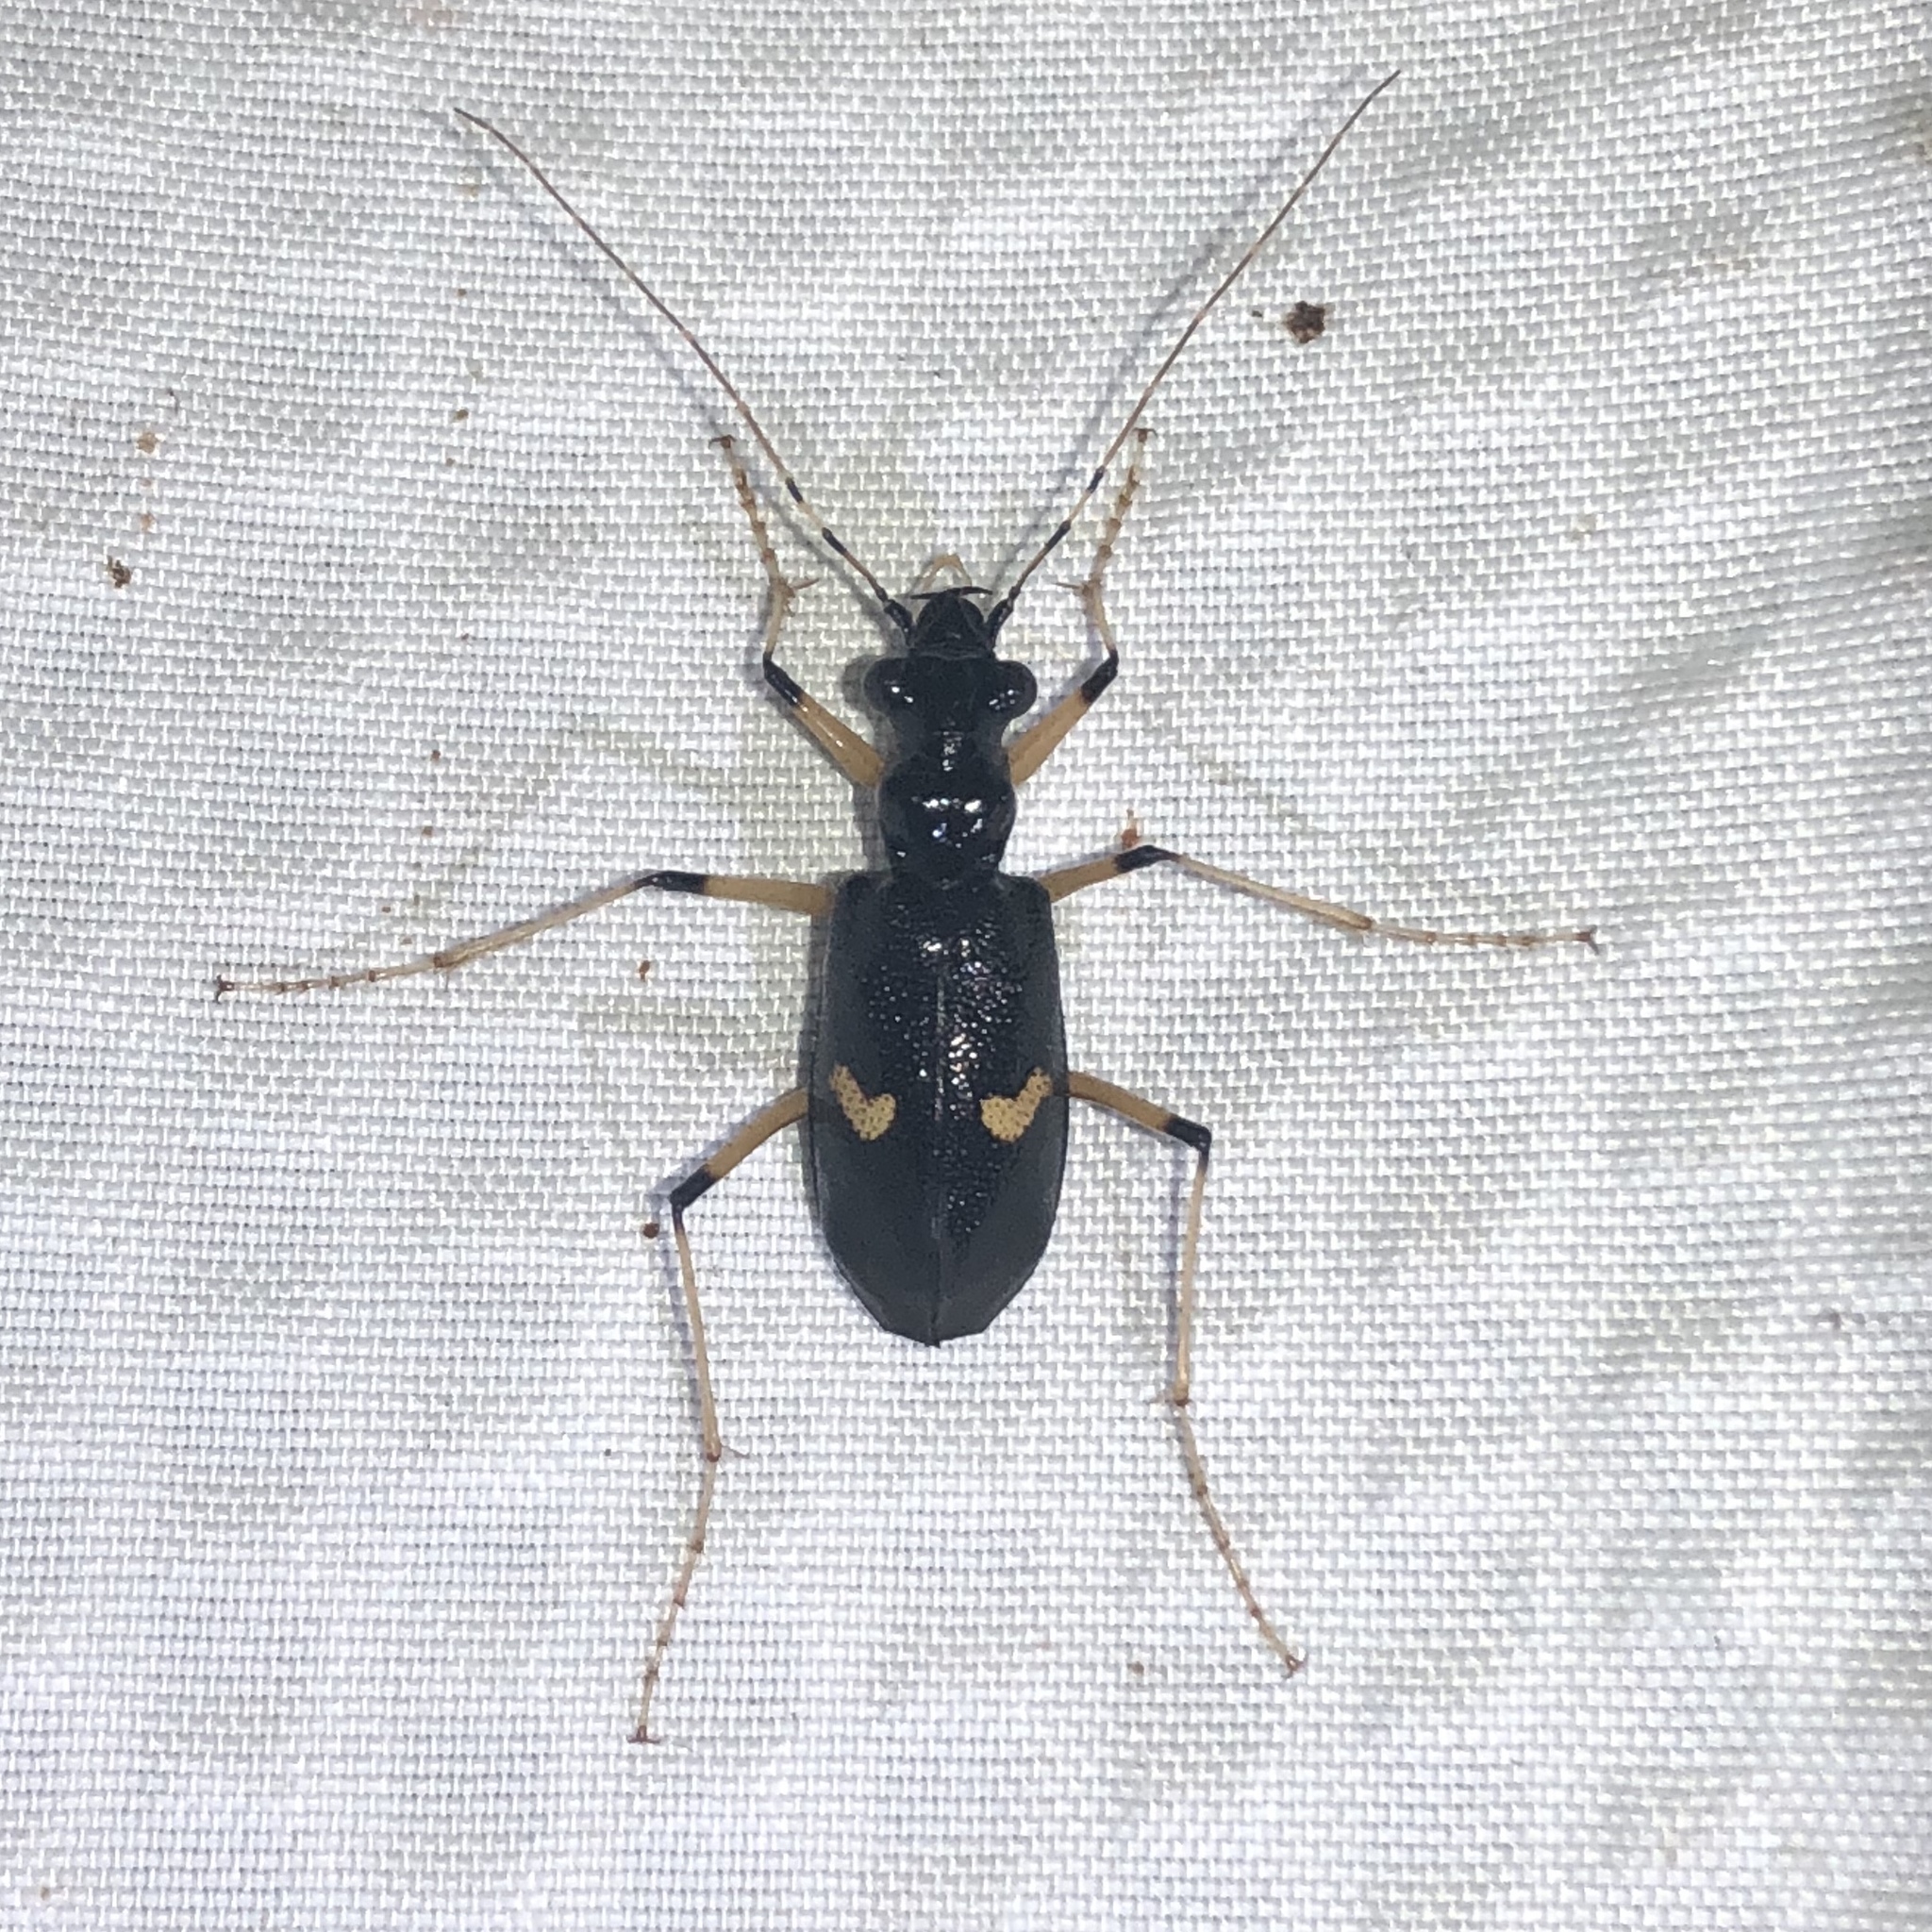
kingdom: Animalia
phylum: Arthropoda
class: Insecta
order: Coleoptera
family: Carabidae
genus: Oxycheila
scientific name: Oxycheila costaricana
